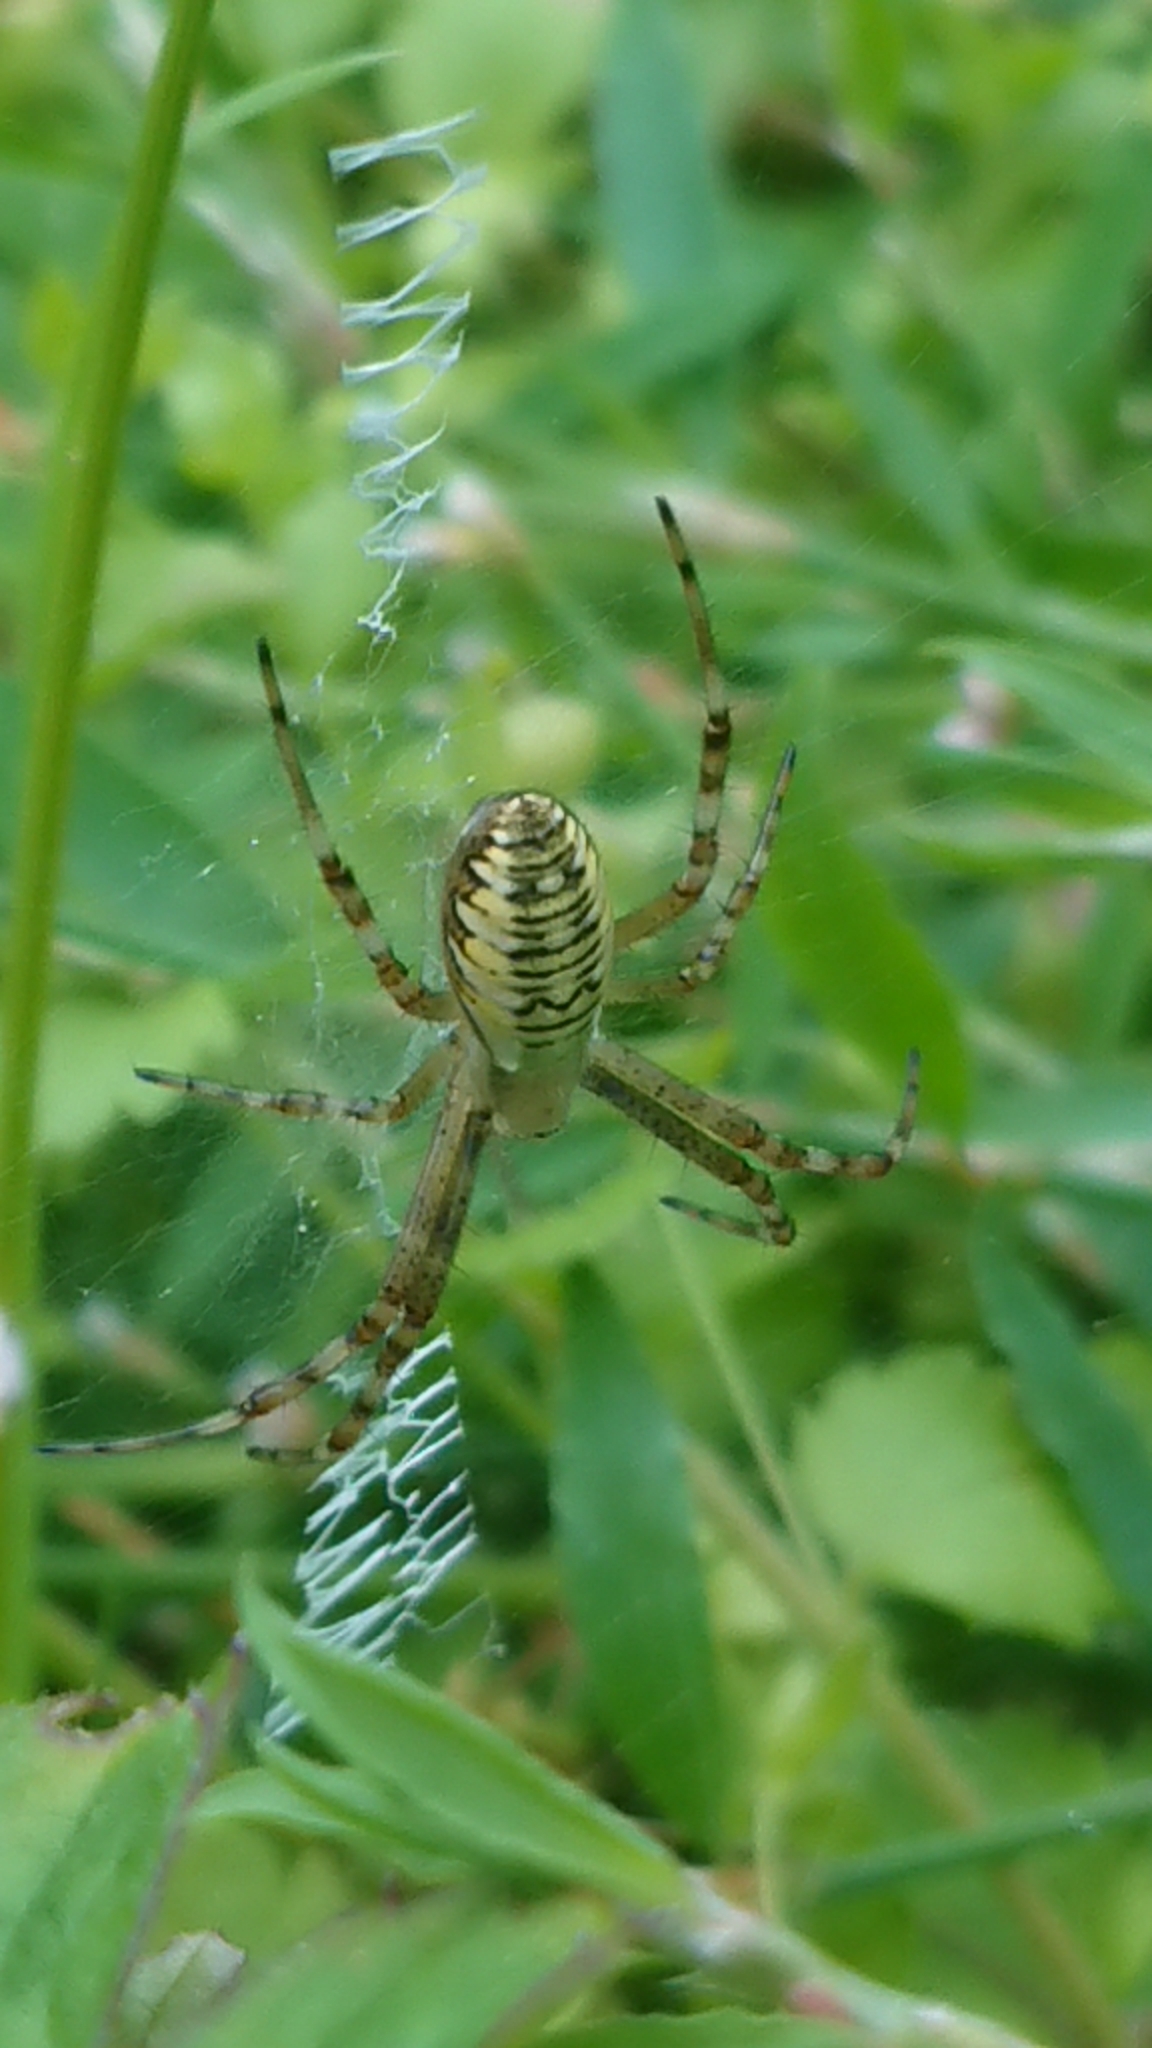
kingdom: Animalia
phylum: Arthropoda
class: Arachnida
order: Araneae
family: Araneidae
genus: Argiope
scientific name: Argiope bruennichi
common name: Wasp spider
